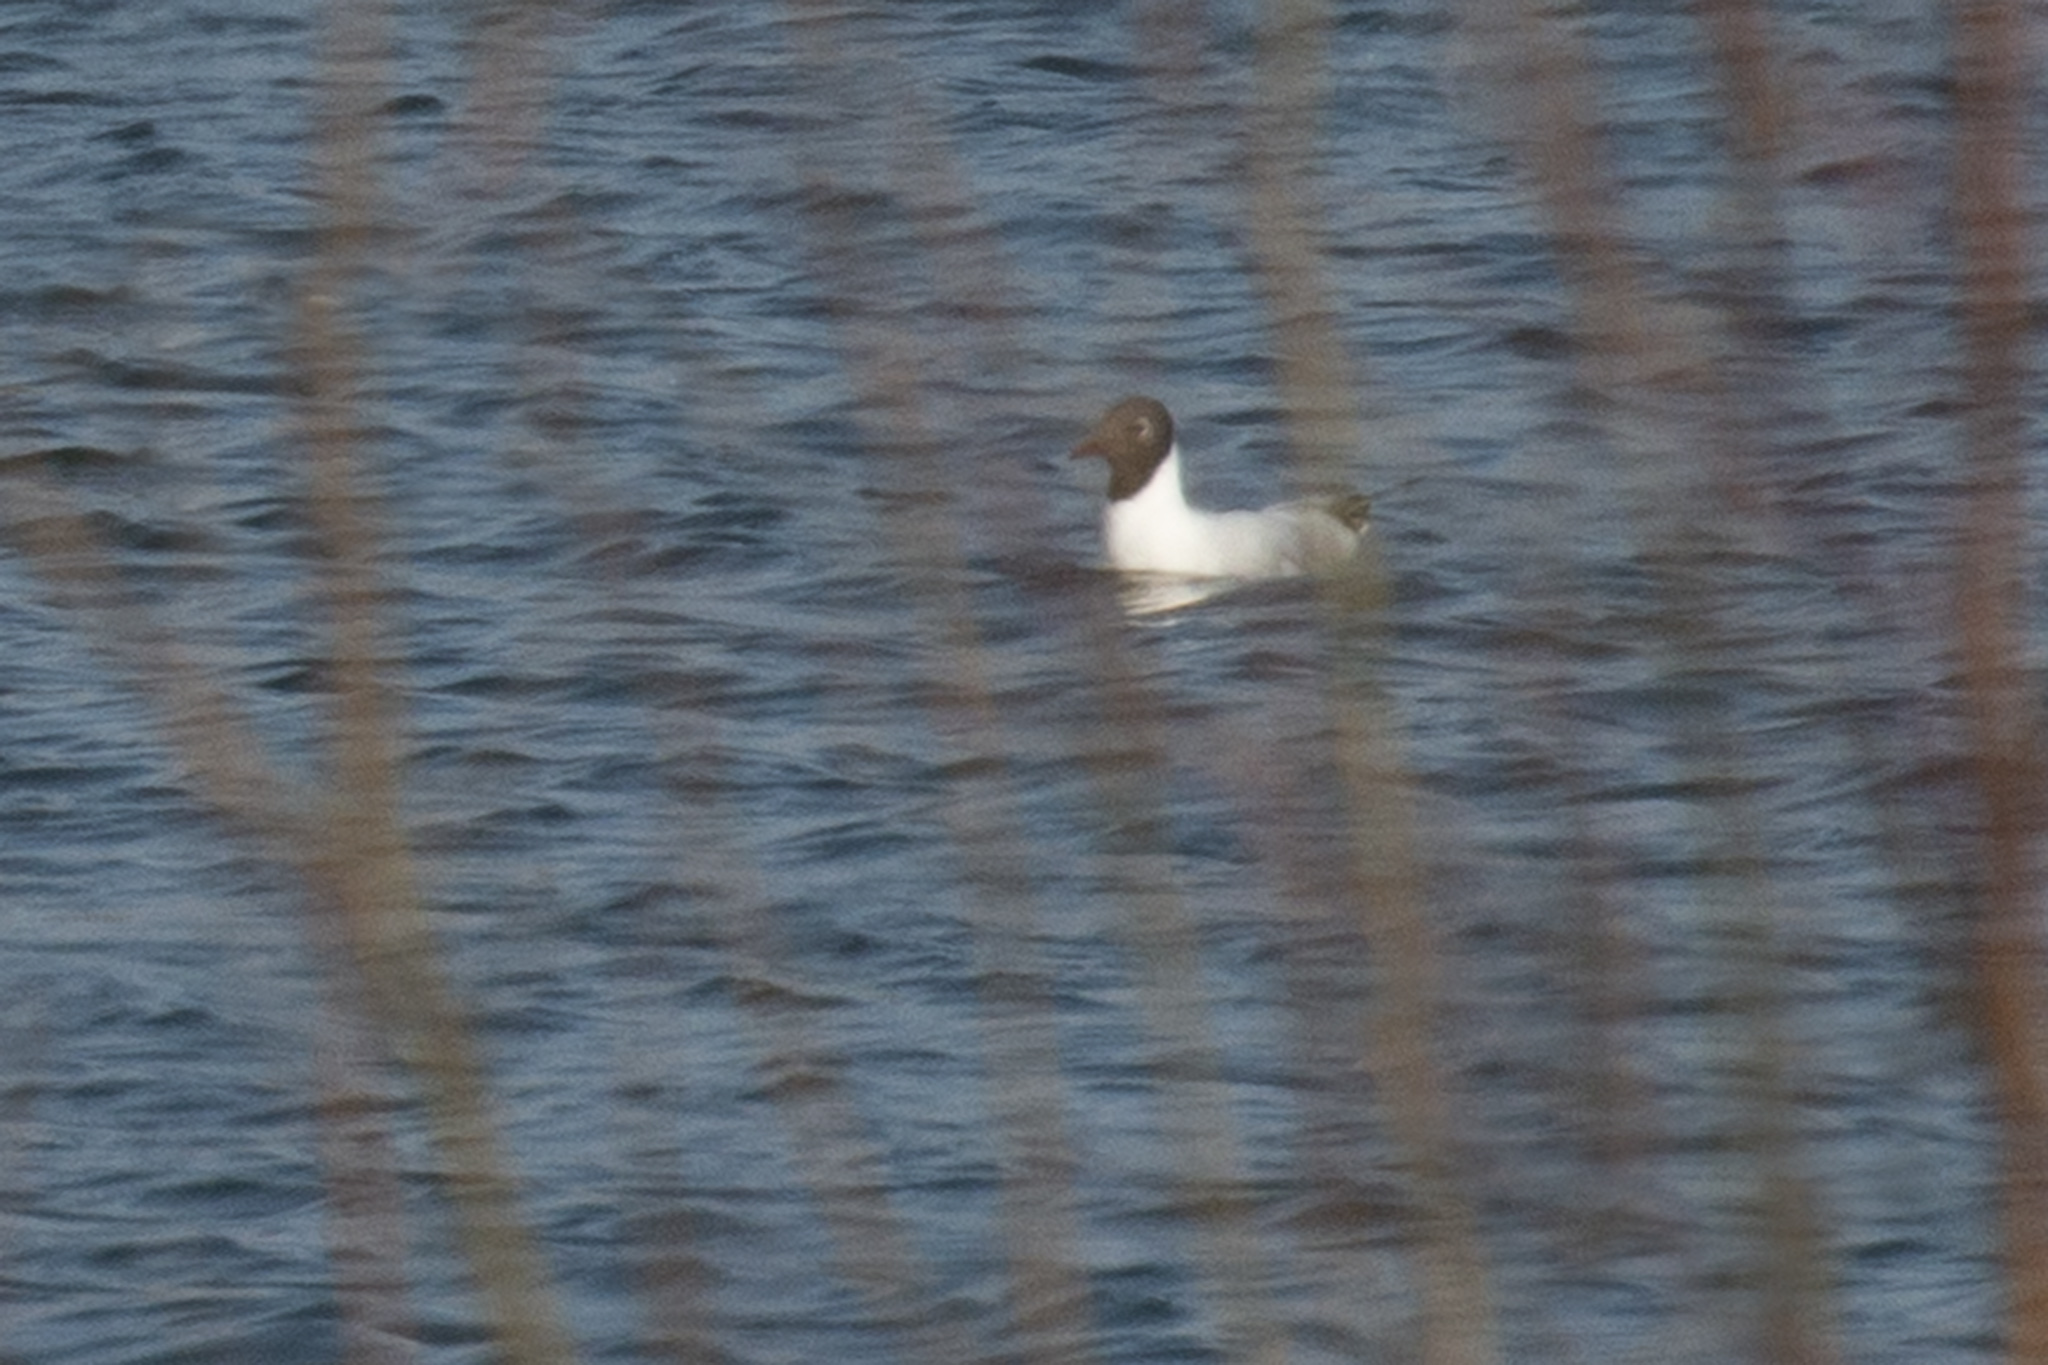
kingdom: Animalia
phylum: Chordata
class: Aves
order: Charadriiformes
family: Laridae
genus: Chroicocephalus
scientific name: Chroicocephalus ridibundus
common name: Black-headed gull
